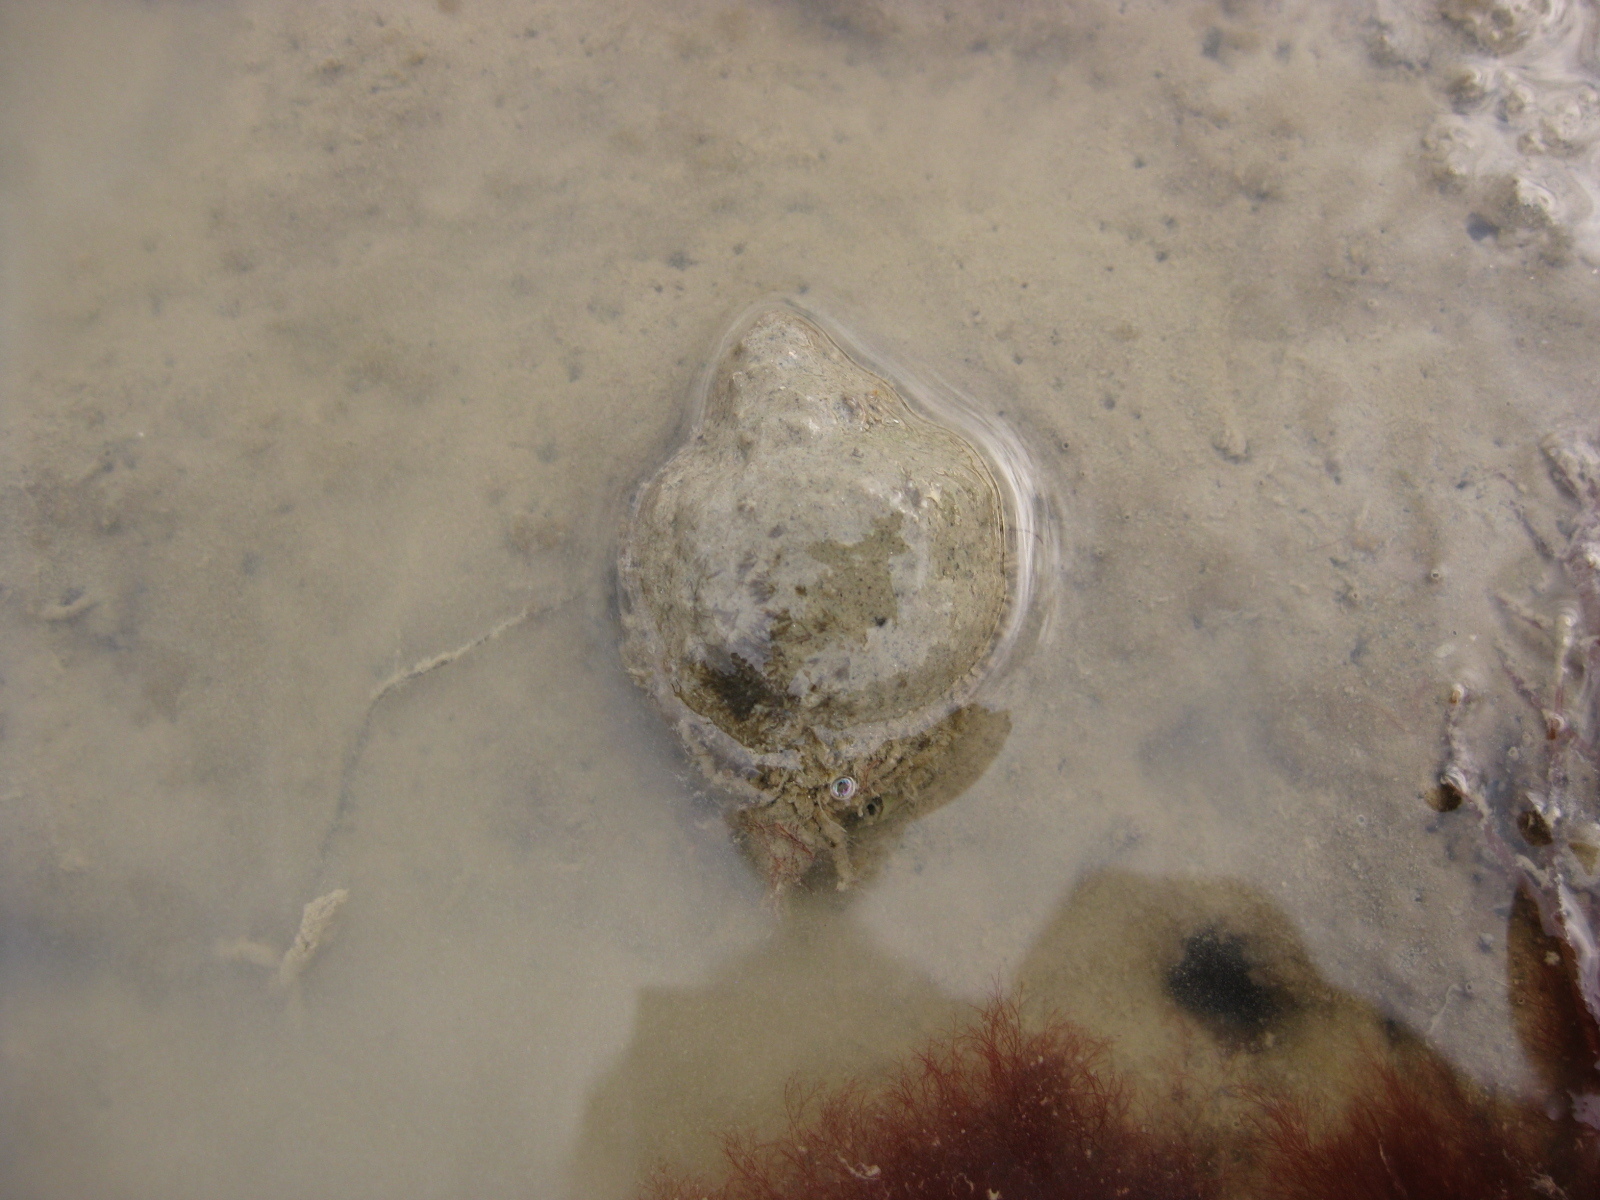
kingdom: Animalia
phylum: Mollusca
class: Gastropoda
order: Neogastropoda
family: Cominellidae
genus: Cominella
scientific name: Cominella adspersa
